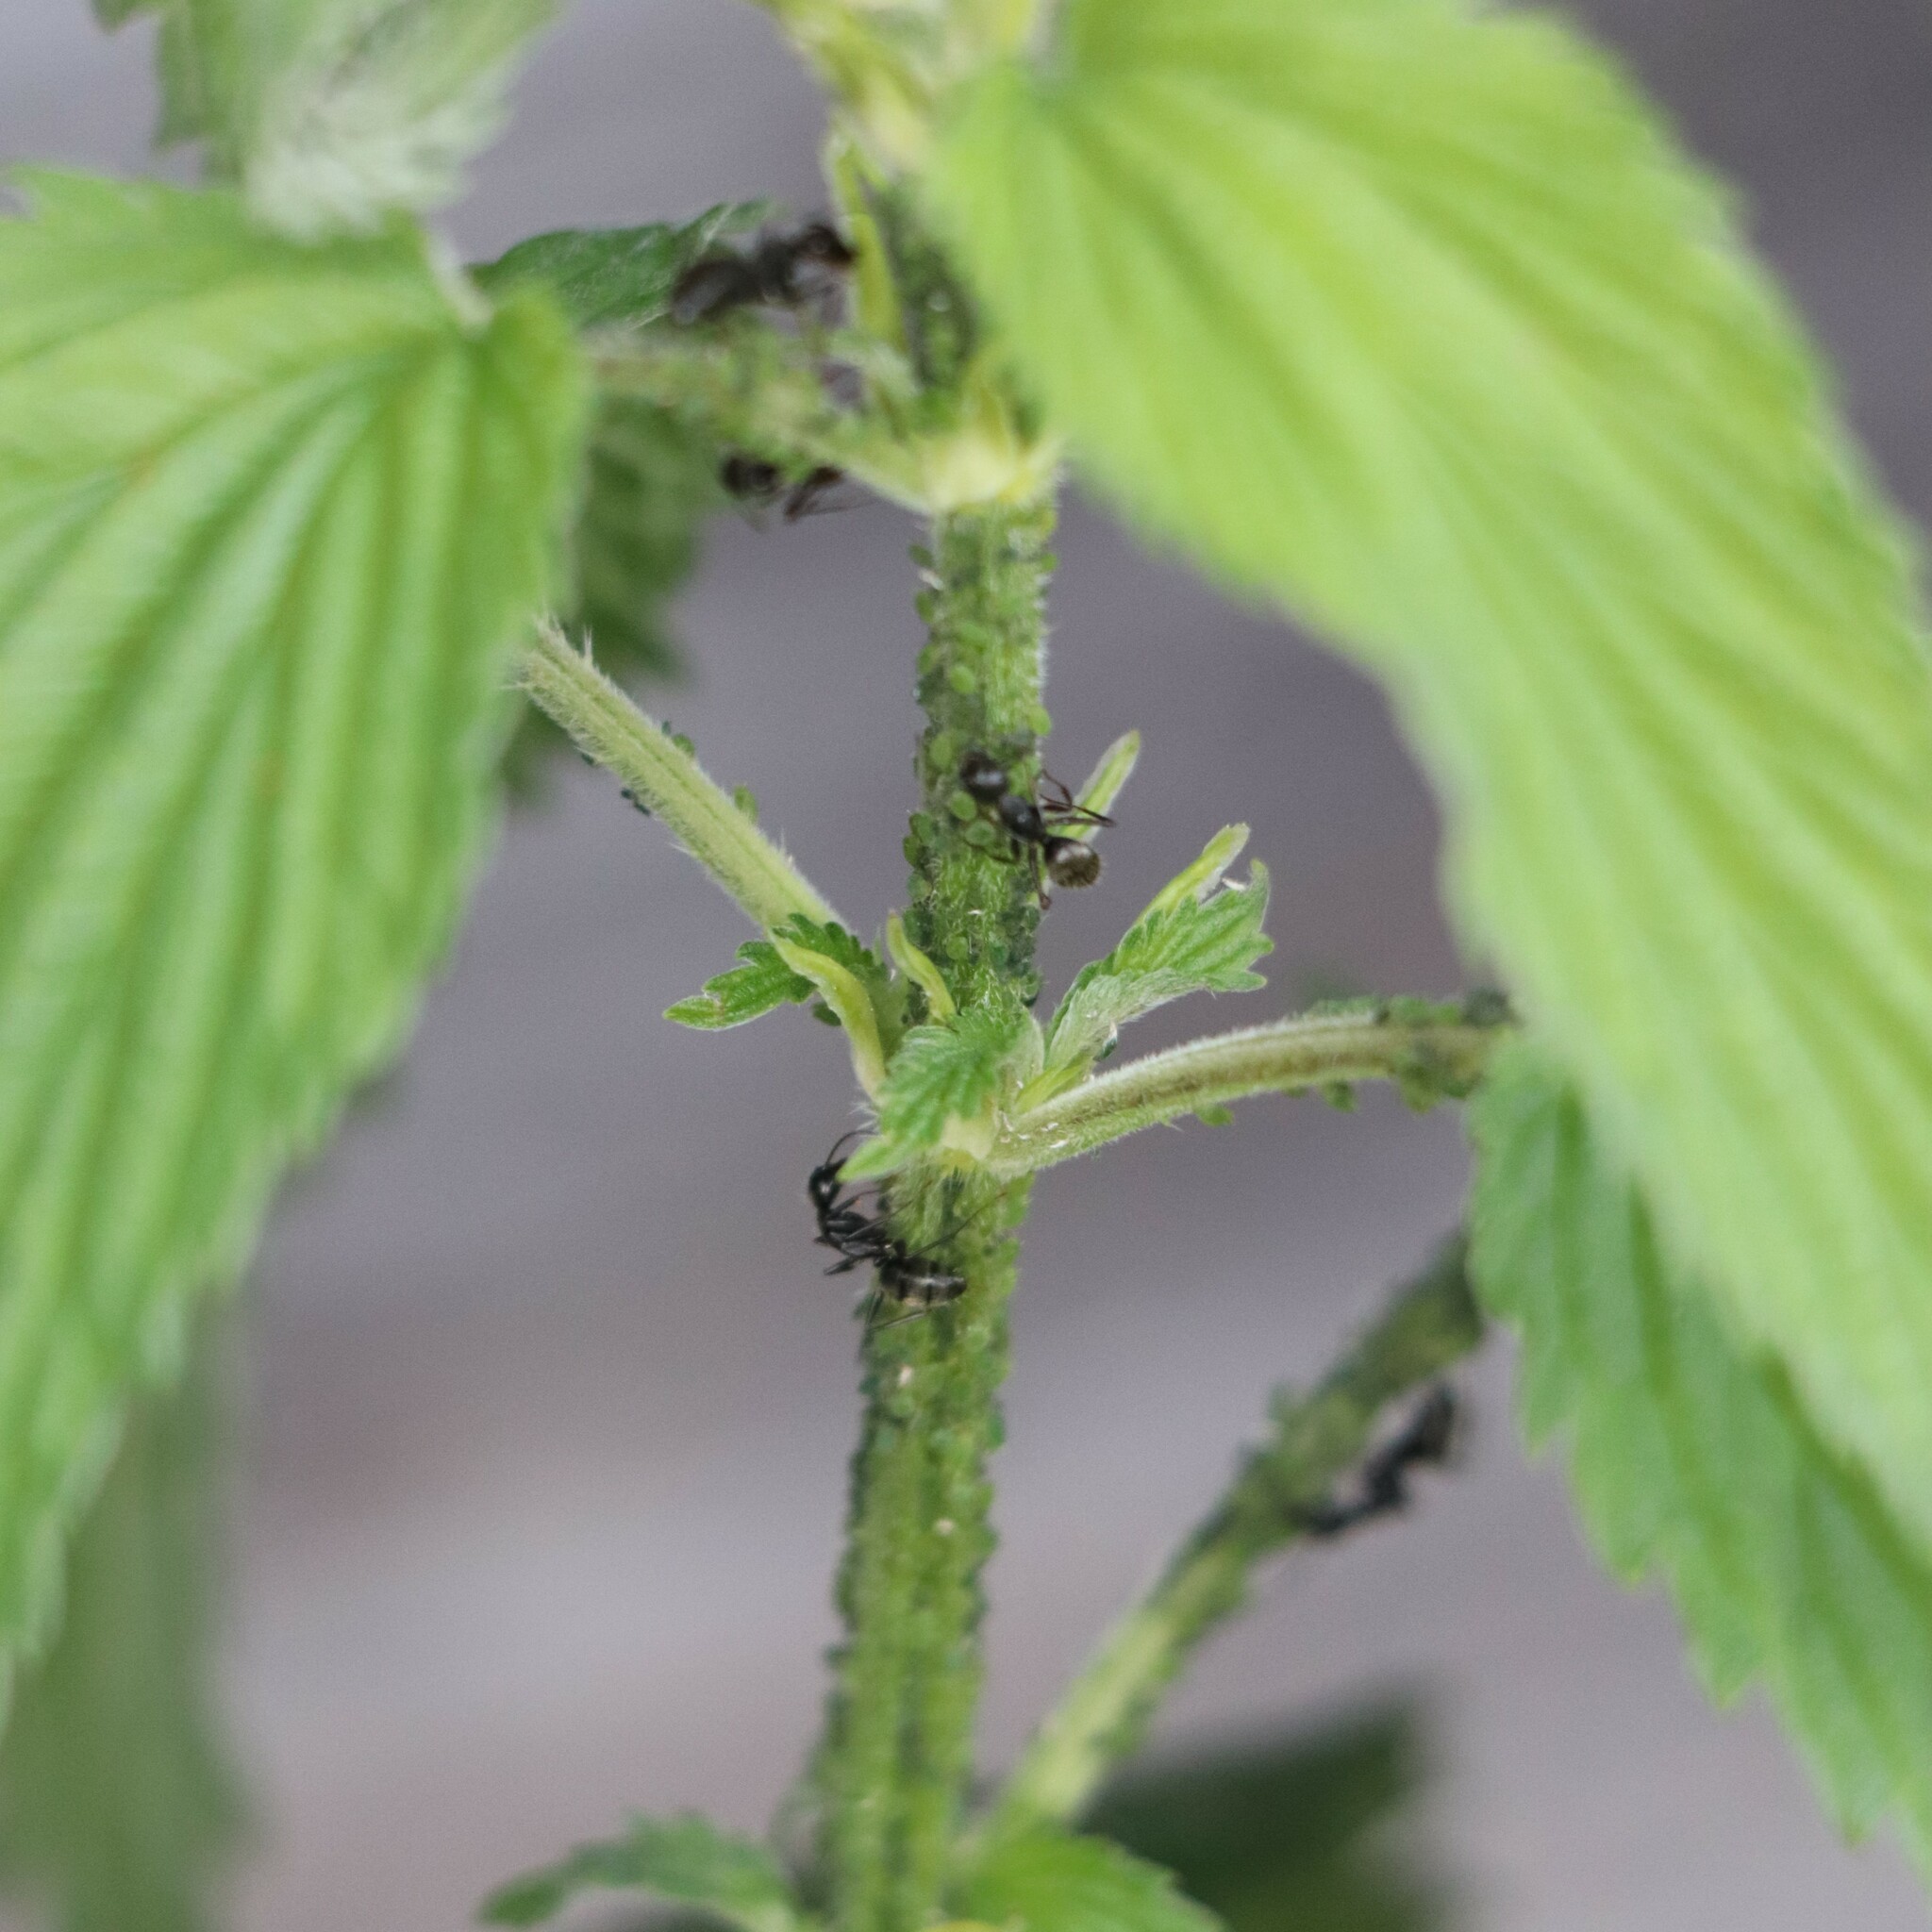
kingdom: Animalia
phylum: Arthropoda
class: Insecta
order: Hymenoptera
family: Formicidae
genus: Camponotus
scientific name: Camponotus pennsylvanicus
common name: Black carpenter ant
